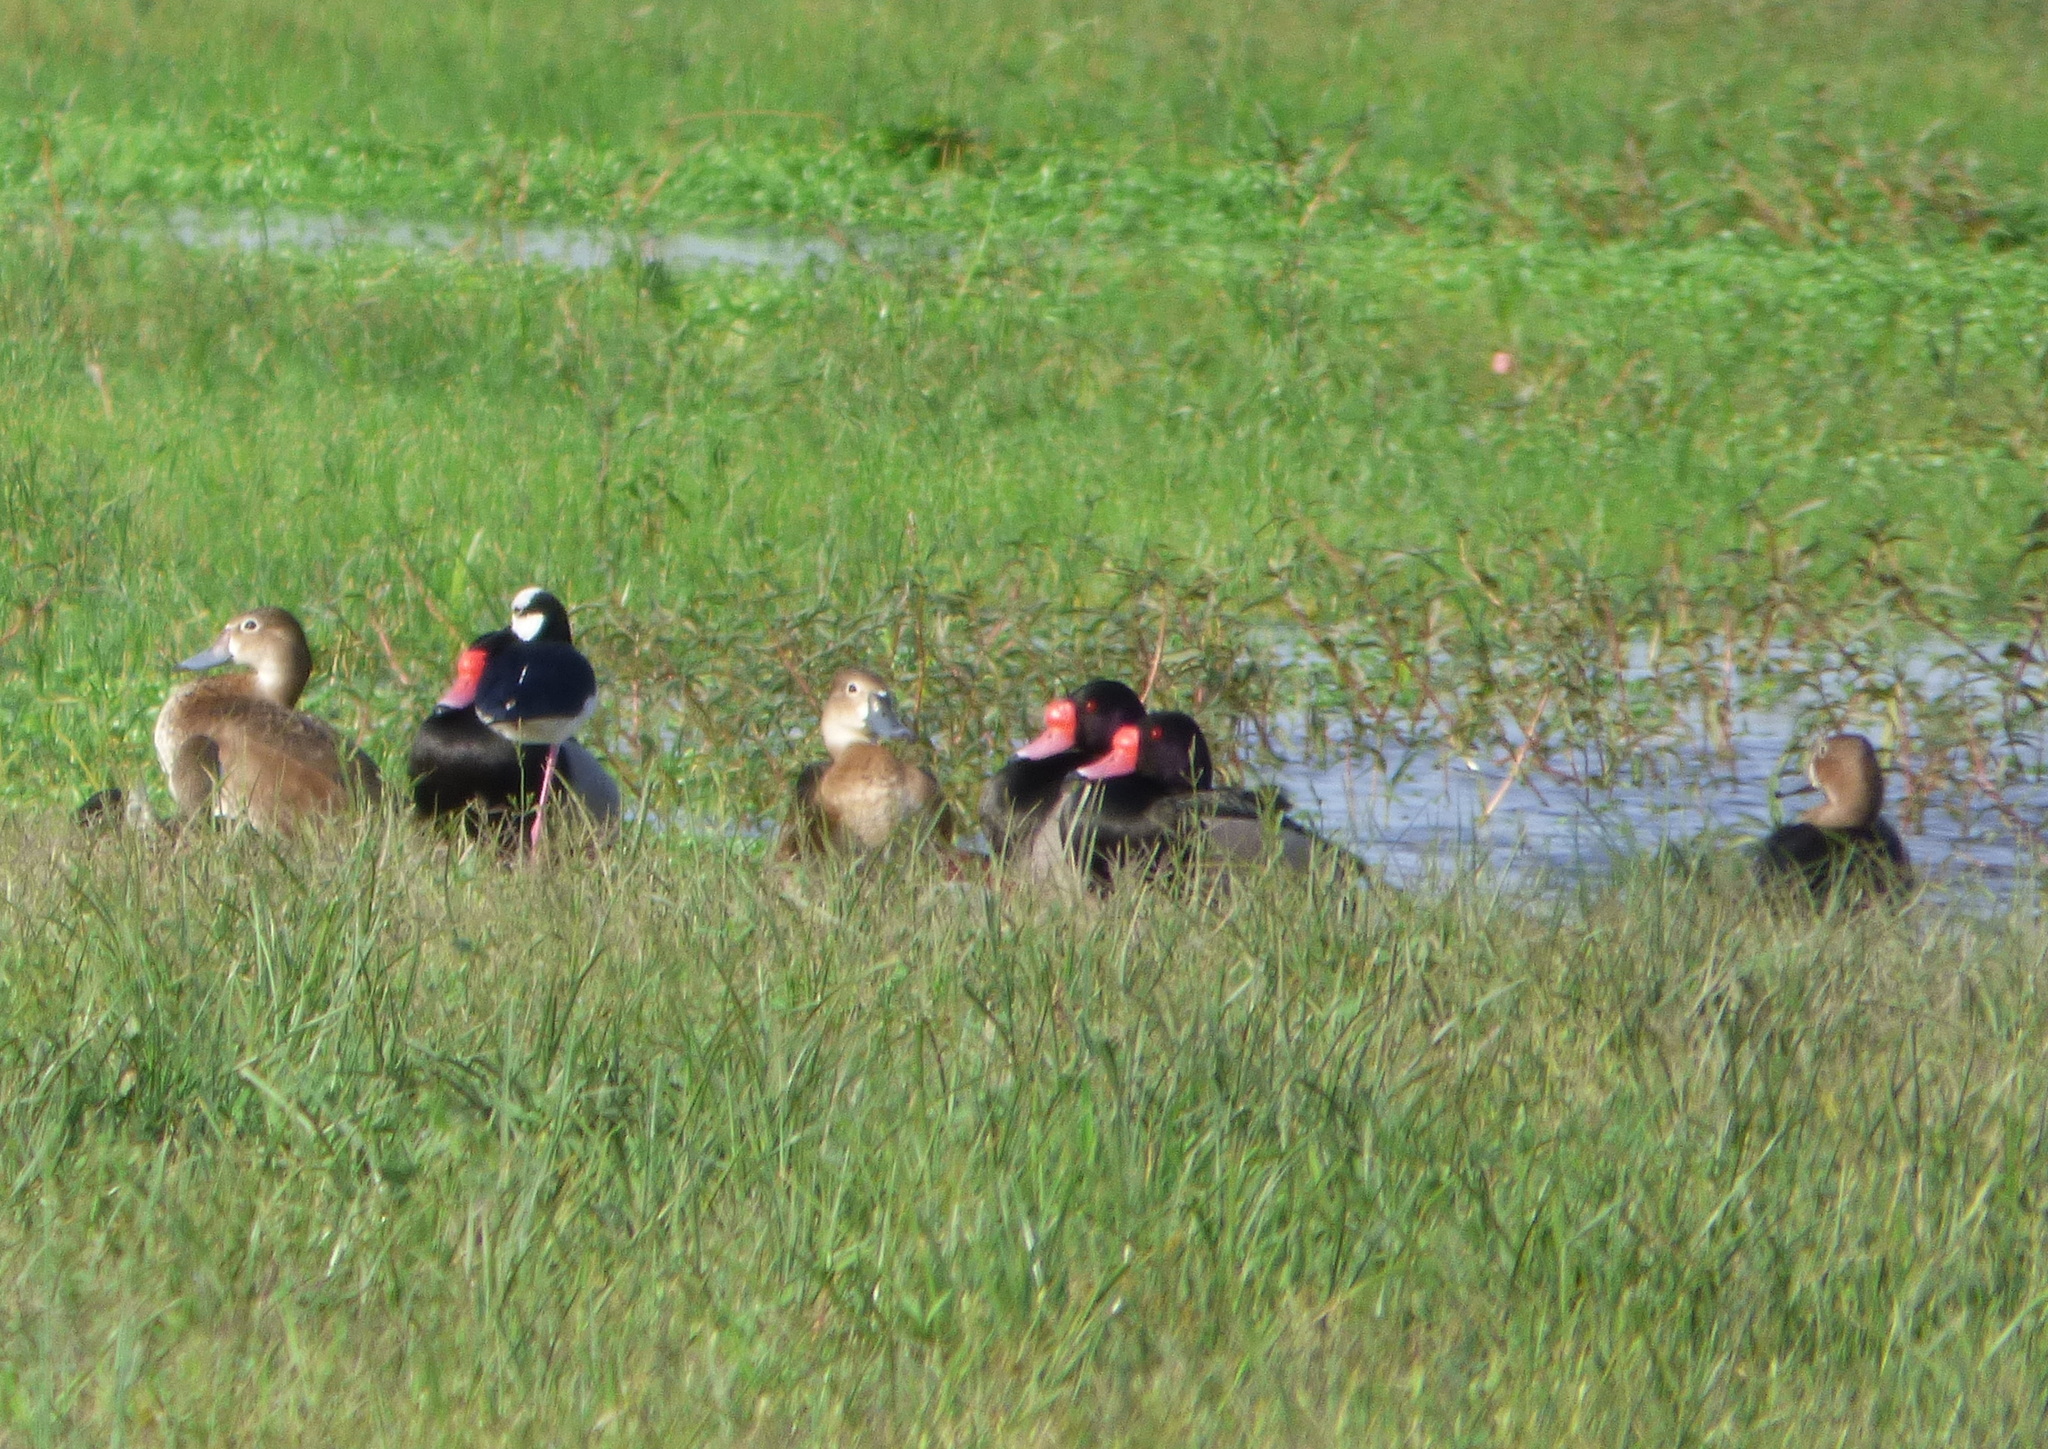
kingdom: Animalia
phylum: Chordata
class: Aves
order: Anseriformes
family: Anatidae
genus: Netta
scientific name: Netta peposaca
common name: Rosy-billed pochard
